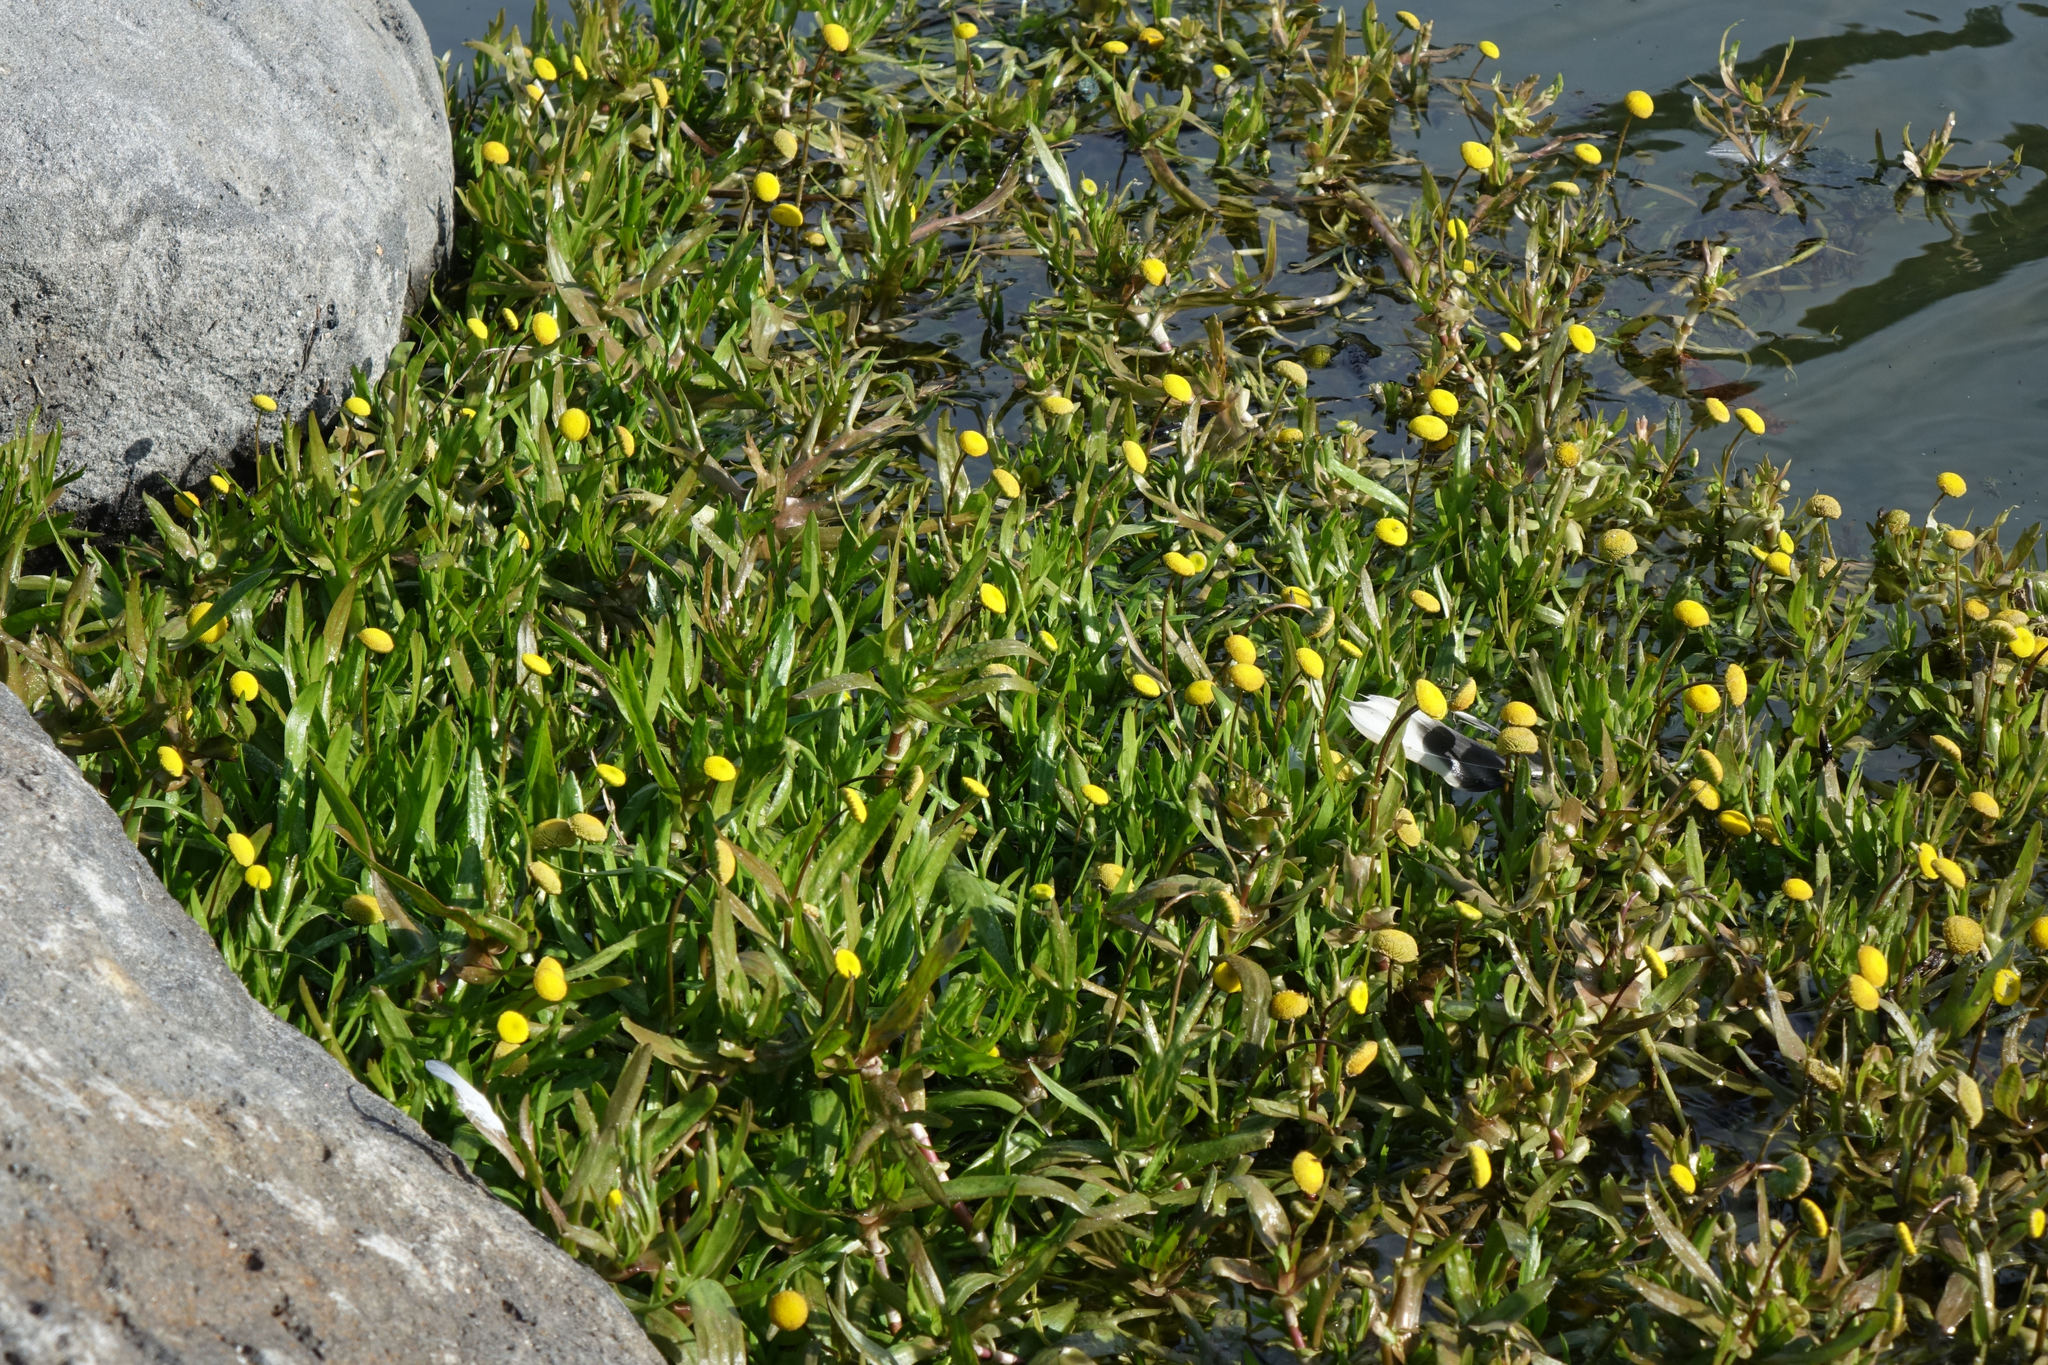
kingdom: Plantae
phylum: Tracheophyta
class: Magnoliopsida
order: Asterales
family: Asteraceae
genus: Cotula
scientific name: Cotula coronopifolia
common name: Buttonweed
